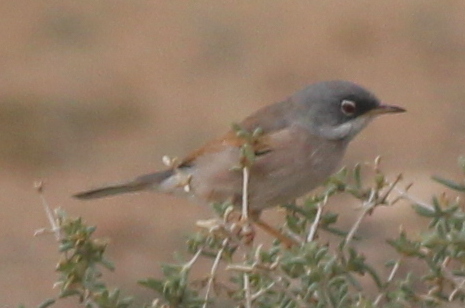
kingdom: Animalia
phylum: Chordata
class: Aves
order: Passeriformes
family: Sylviidae
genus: Sylvia
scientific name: Sylvia conspicillata
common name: Spectacled warbler
